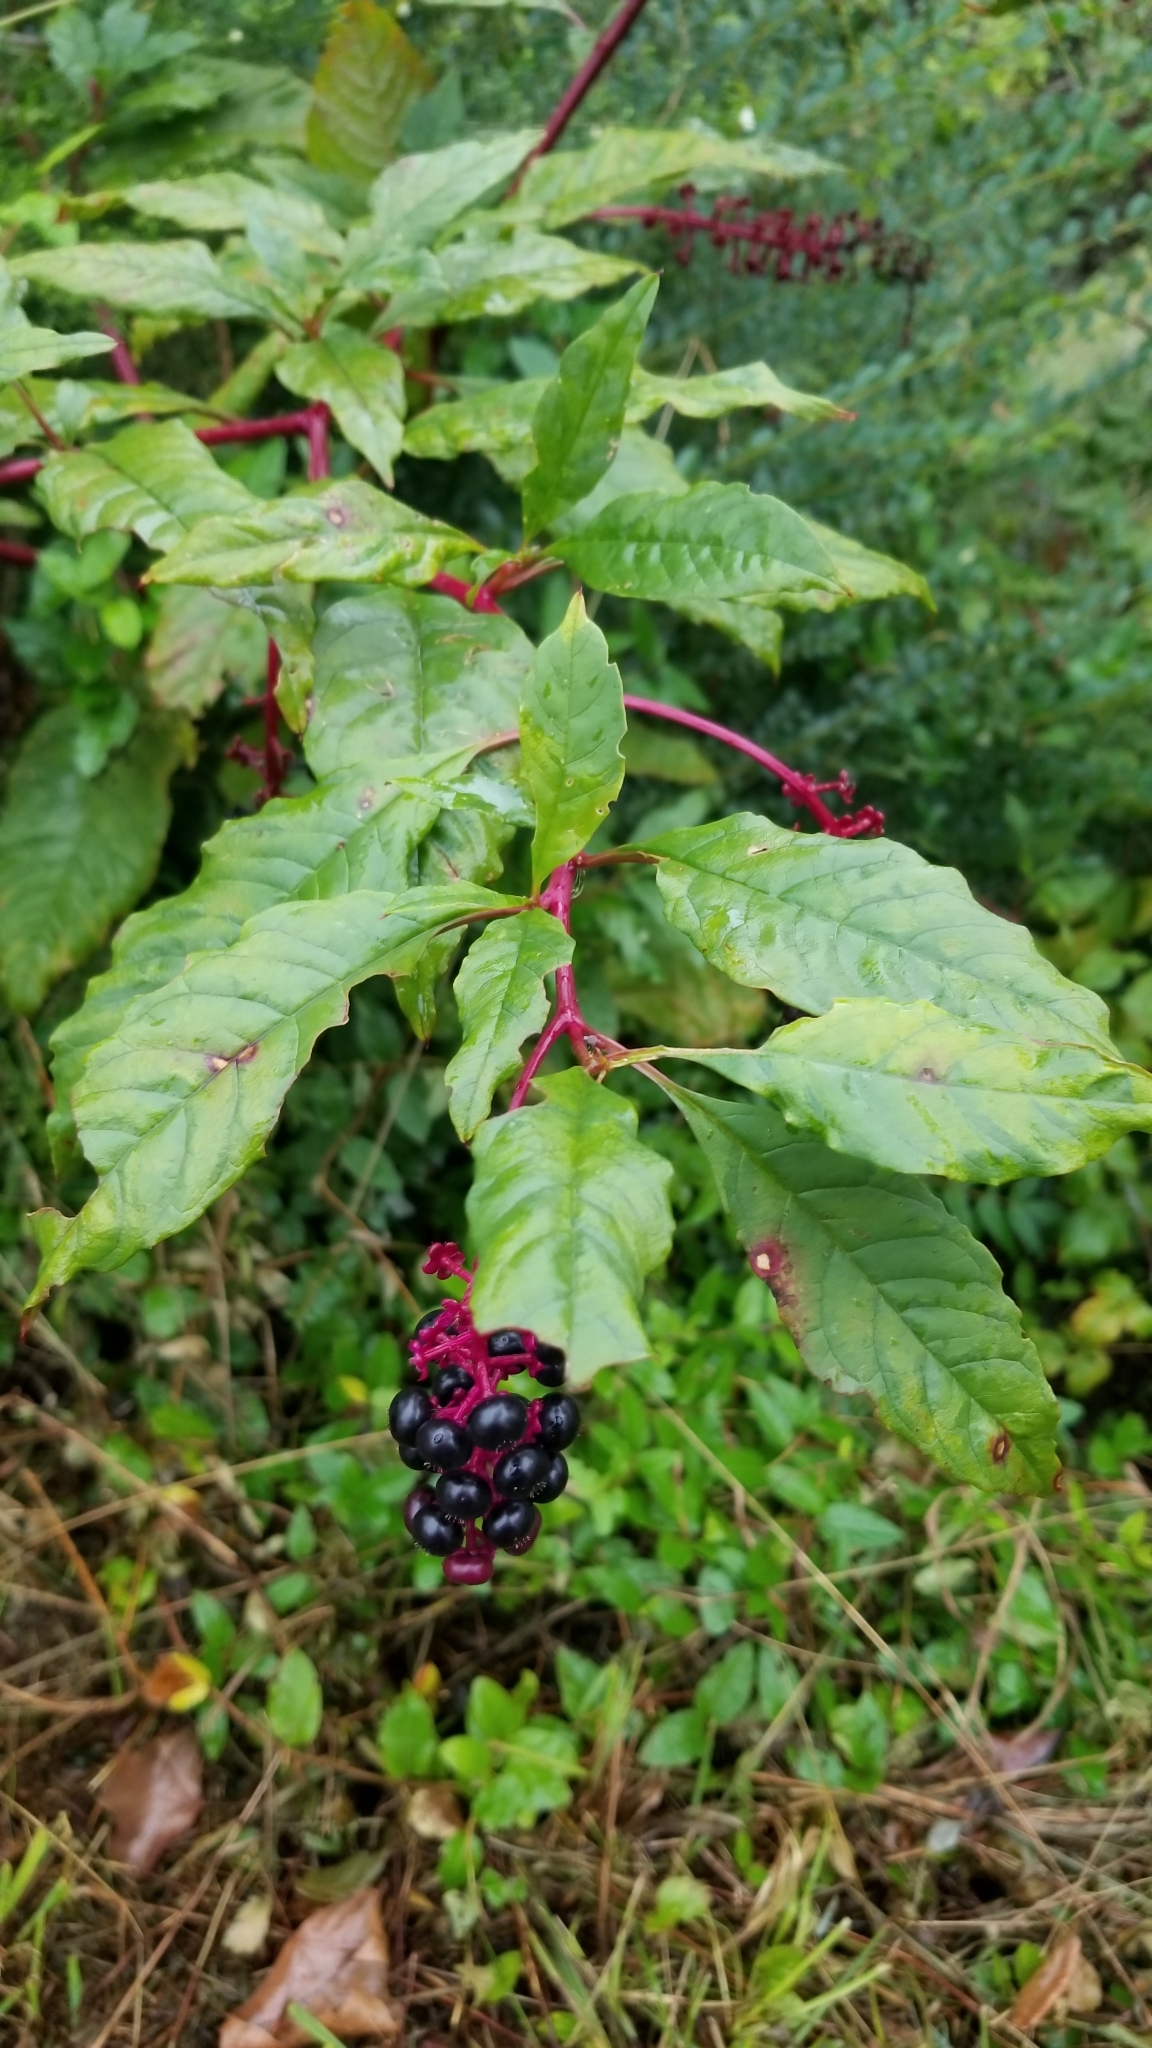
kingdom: Plantae
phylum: Tracheophyta
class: Magnoliopsida
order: Caryophyllales
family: Phytolaccaceae
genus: Phytolacca
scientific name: Phytolacca americana
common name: American pokeweed
